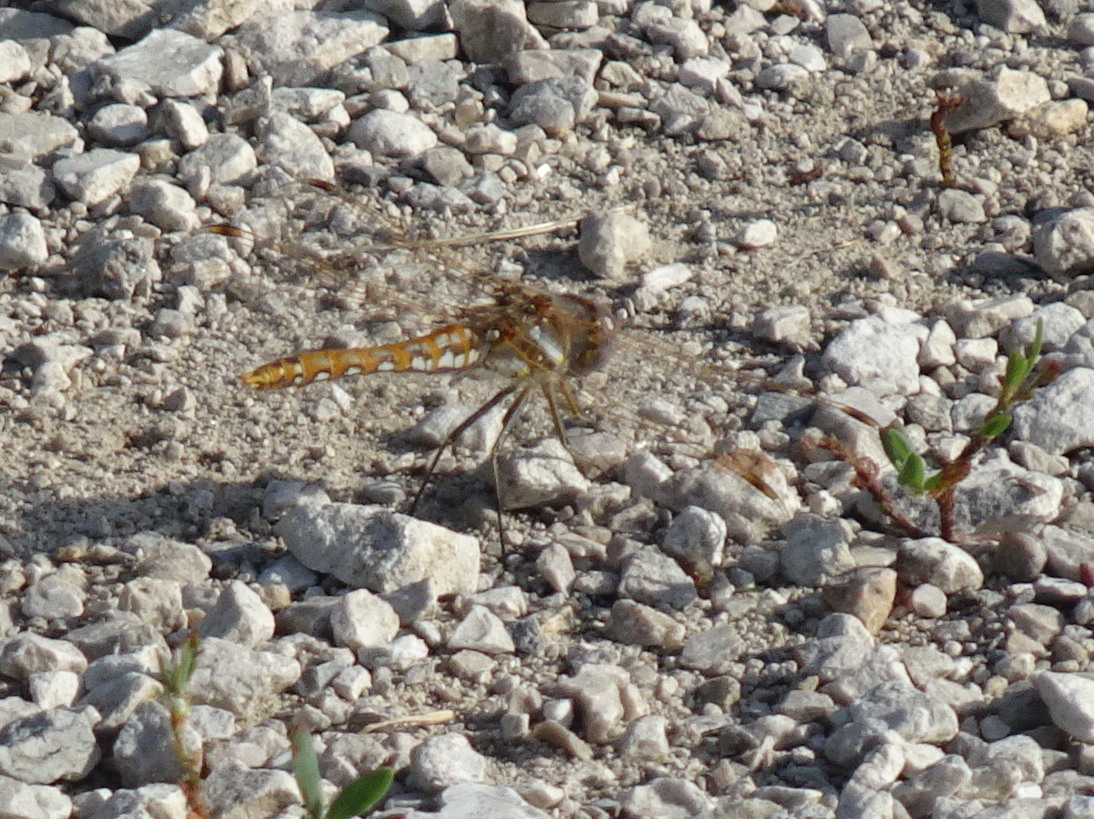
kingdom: Animalia
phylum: Arthropoda
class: Insecta
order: Odonata
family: Libellulidae
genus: Sympetrum
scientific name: Sympetrum corruptum
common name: Variegated meadowhawk
